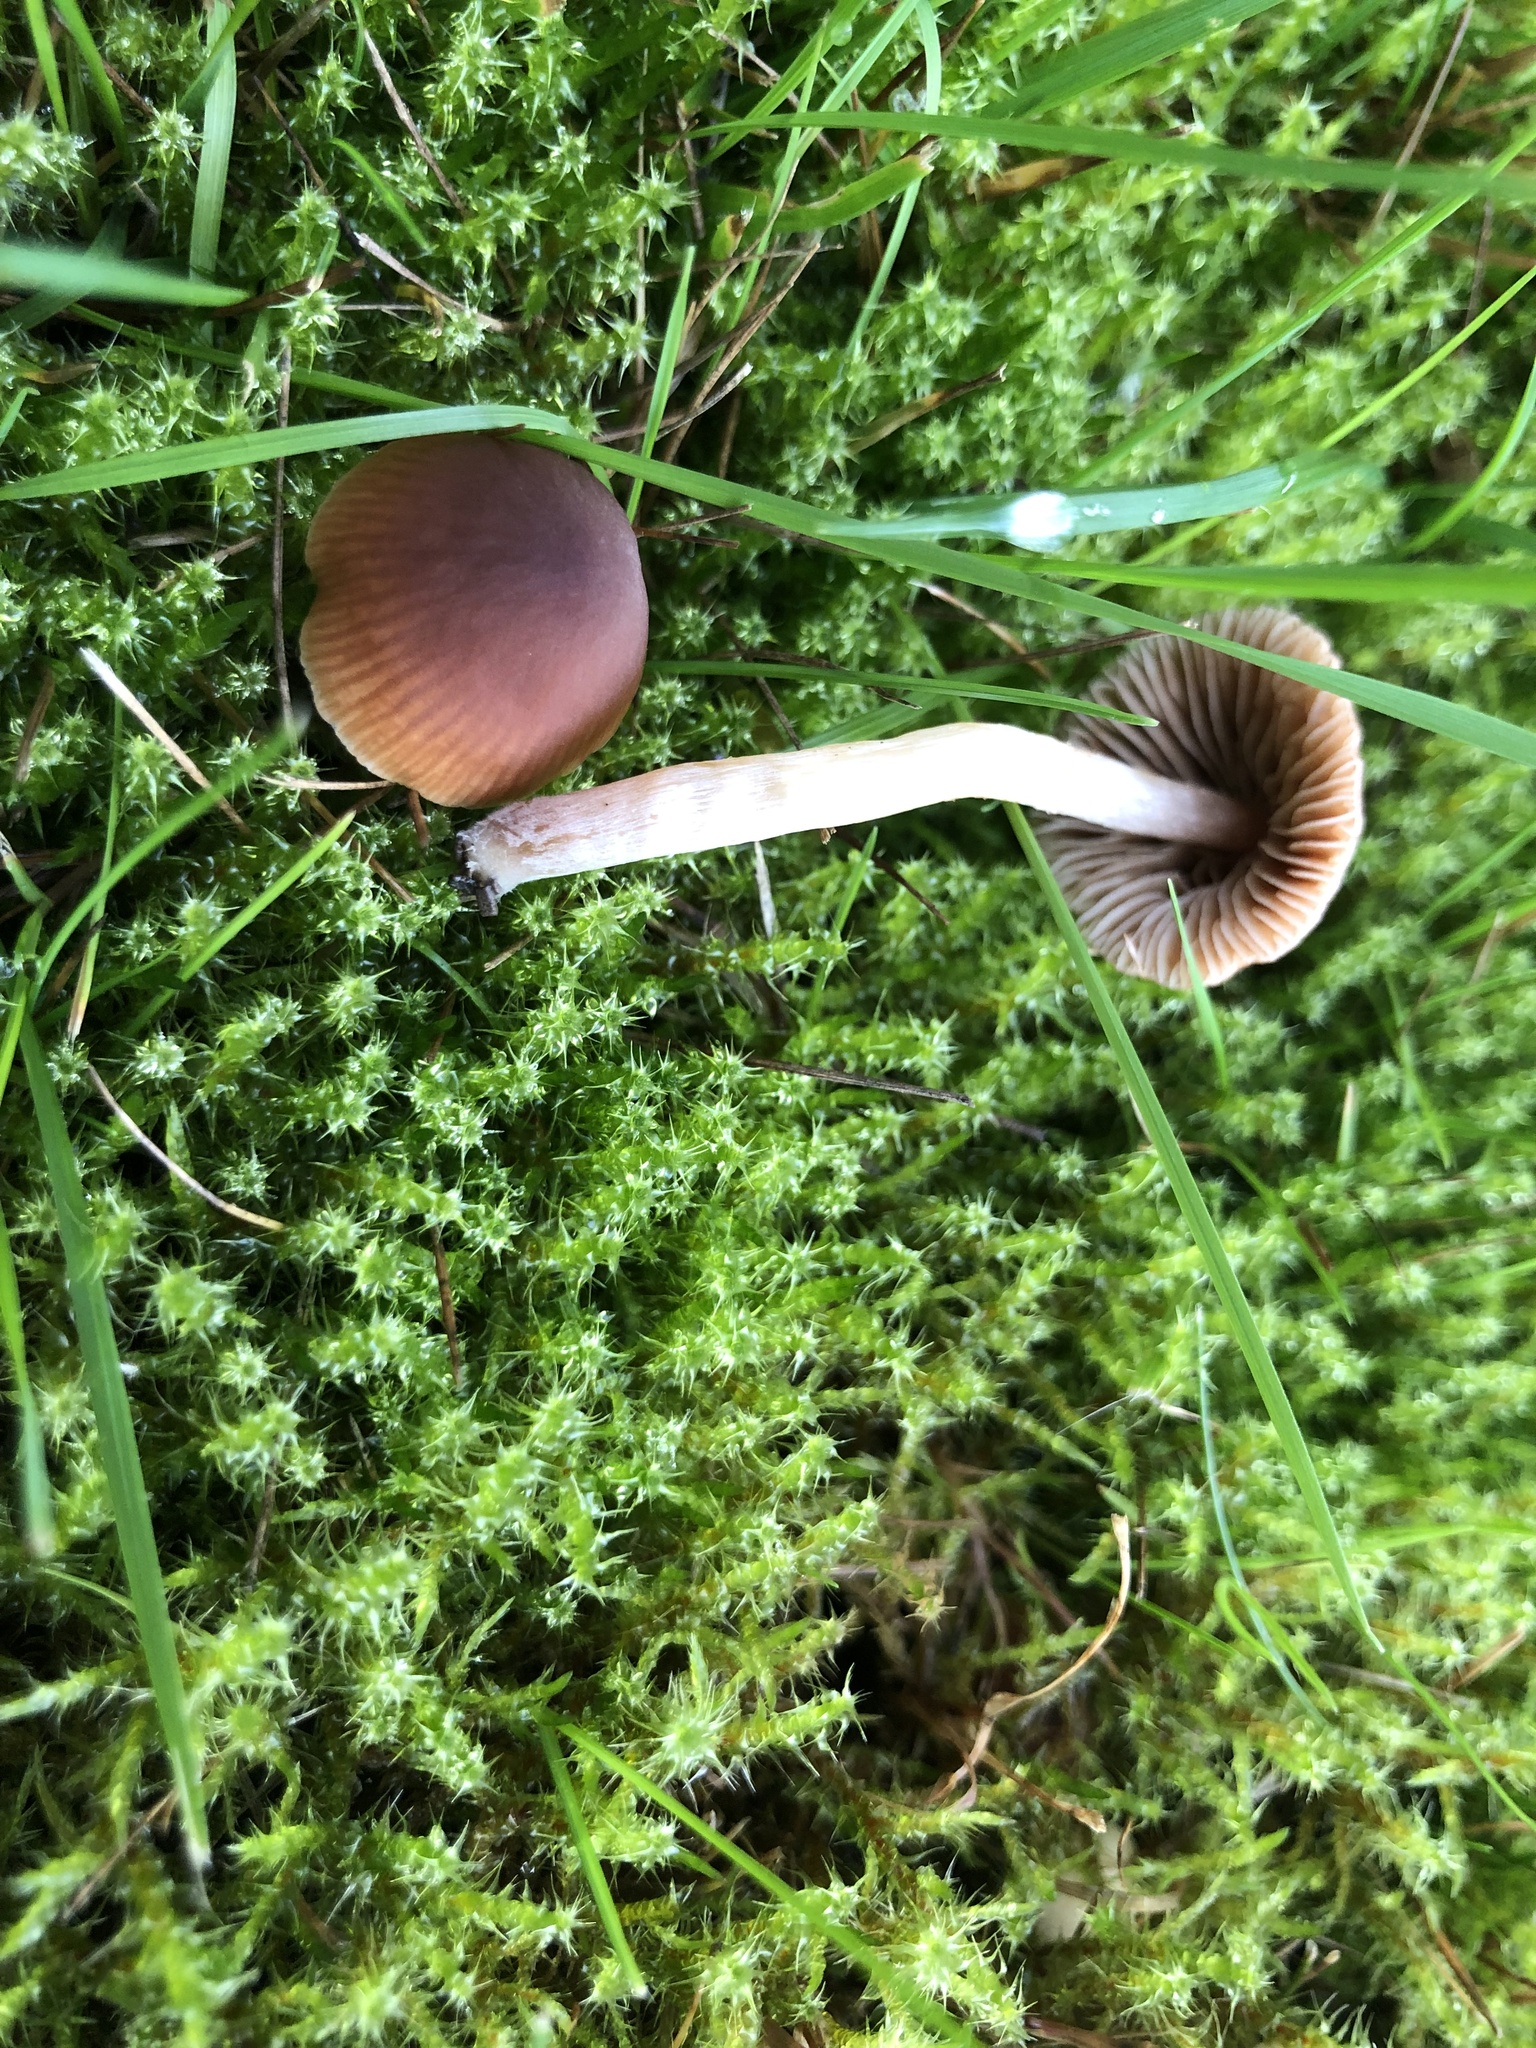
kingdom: Fungi
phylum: Basidiomycota
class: Agaricomycetes
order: Agaricales
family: Hymenogastraceae
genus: Galerina
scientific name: Galerina semilanceata
